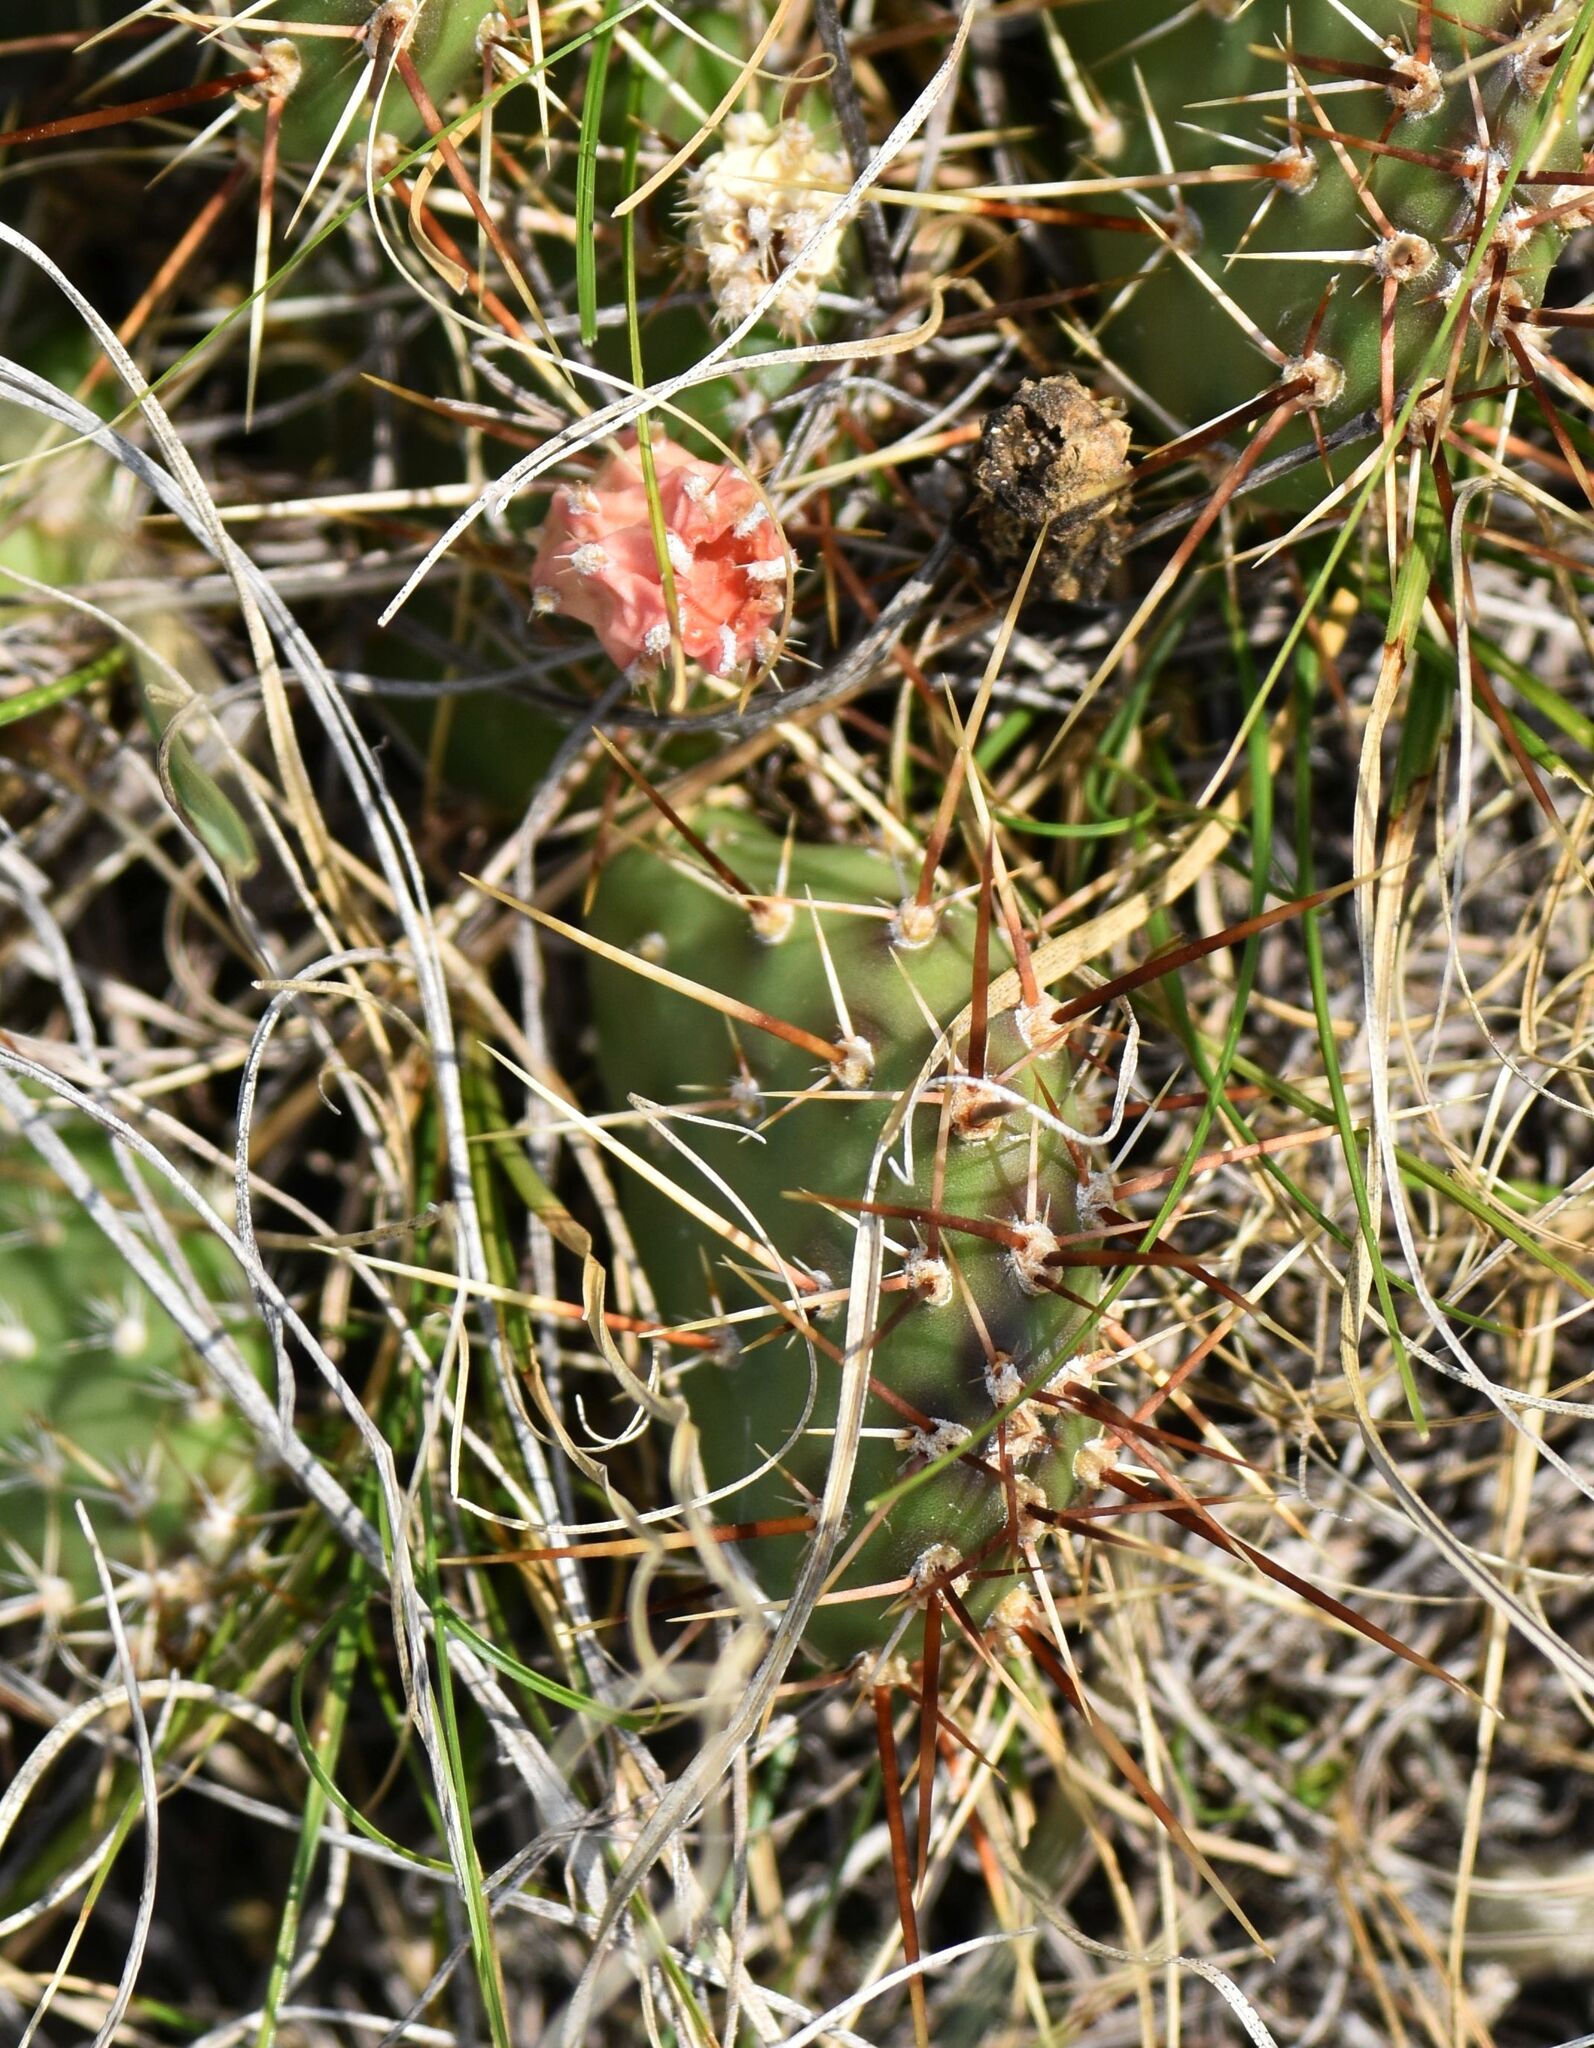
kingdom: Plantae
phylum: Tracheophyta
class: Magnoliopsida
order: Caryophyllales
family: Cactaceae
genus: Opuntia
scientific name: Opuntia fragilis
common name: Brittle cactus
